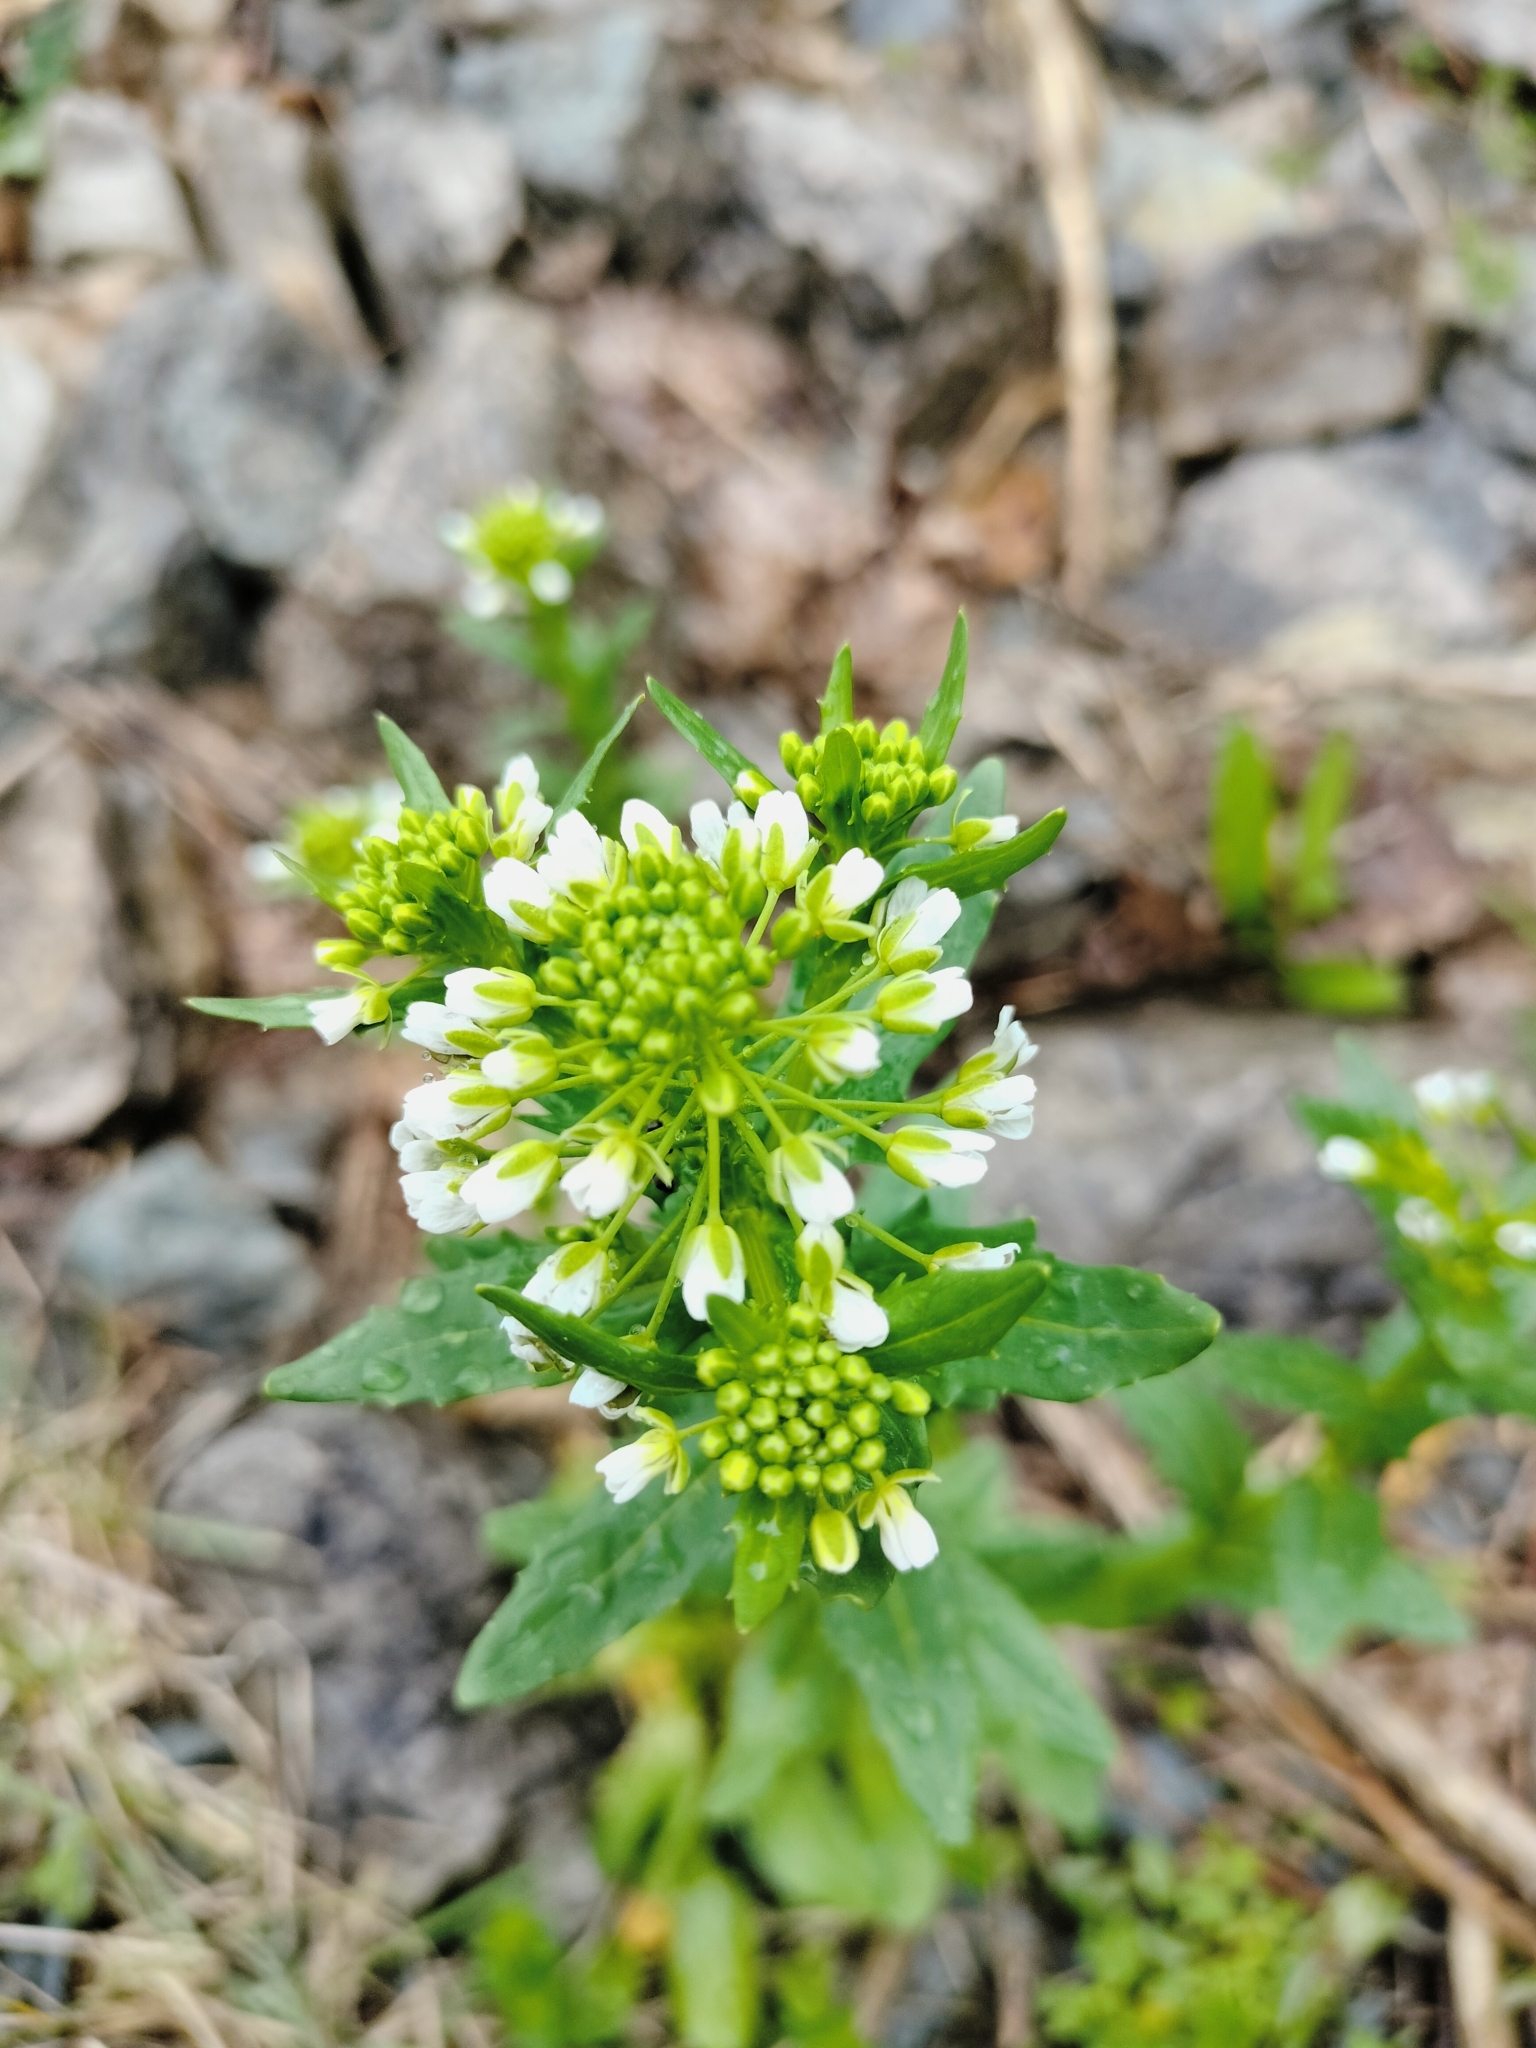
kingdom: Plantae
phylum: Tracheophyta
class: Magnoliopsida
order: Brassicales
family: Brassicaceae
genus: Thlaspi
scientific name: Thlaspi arvense
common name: Field pennycress
